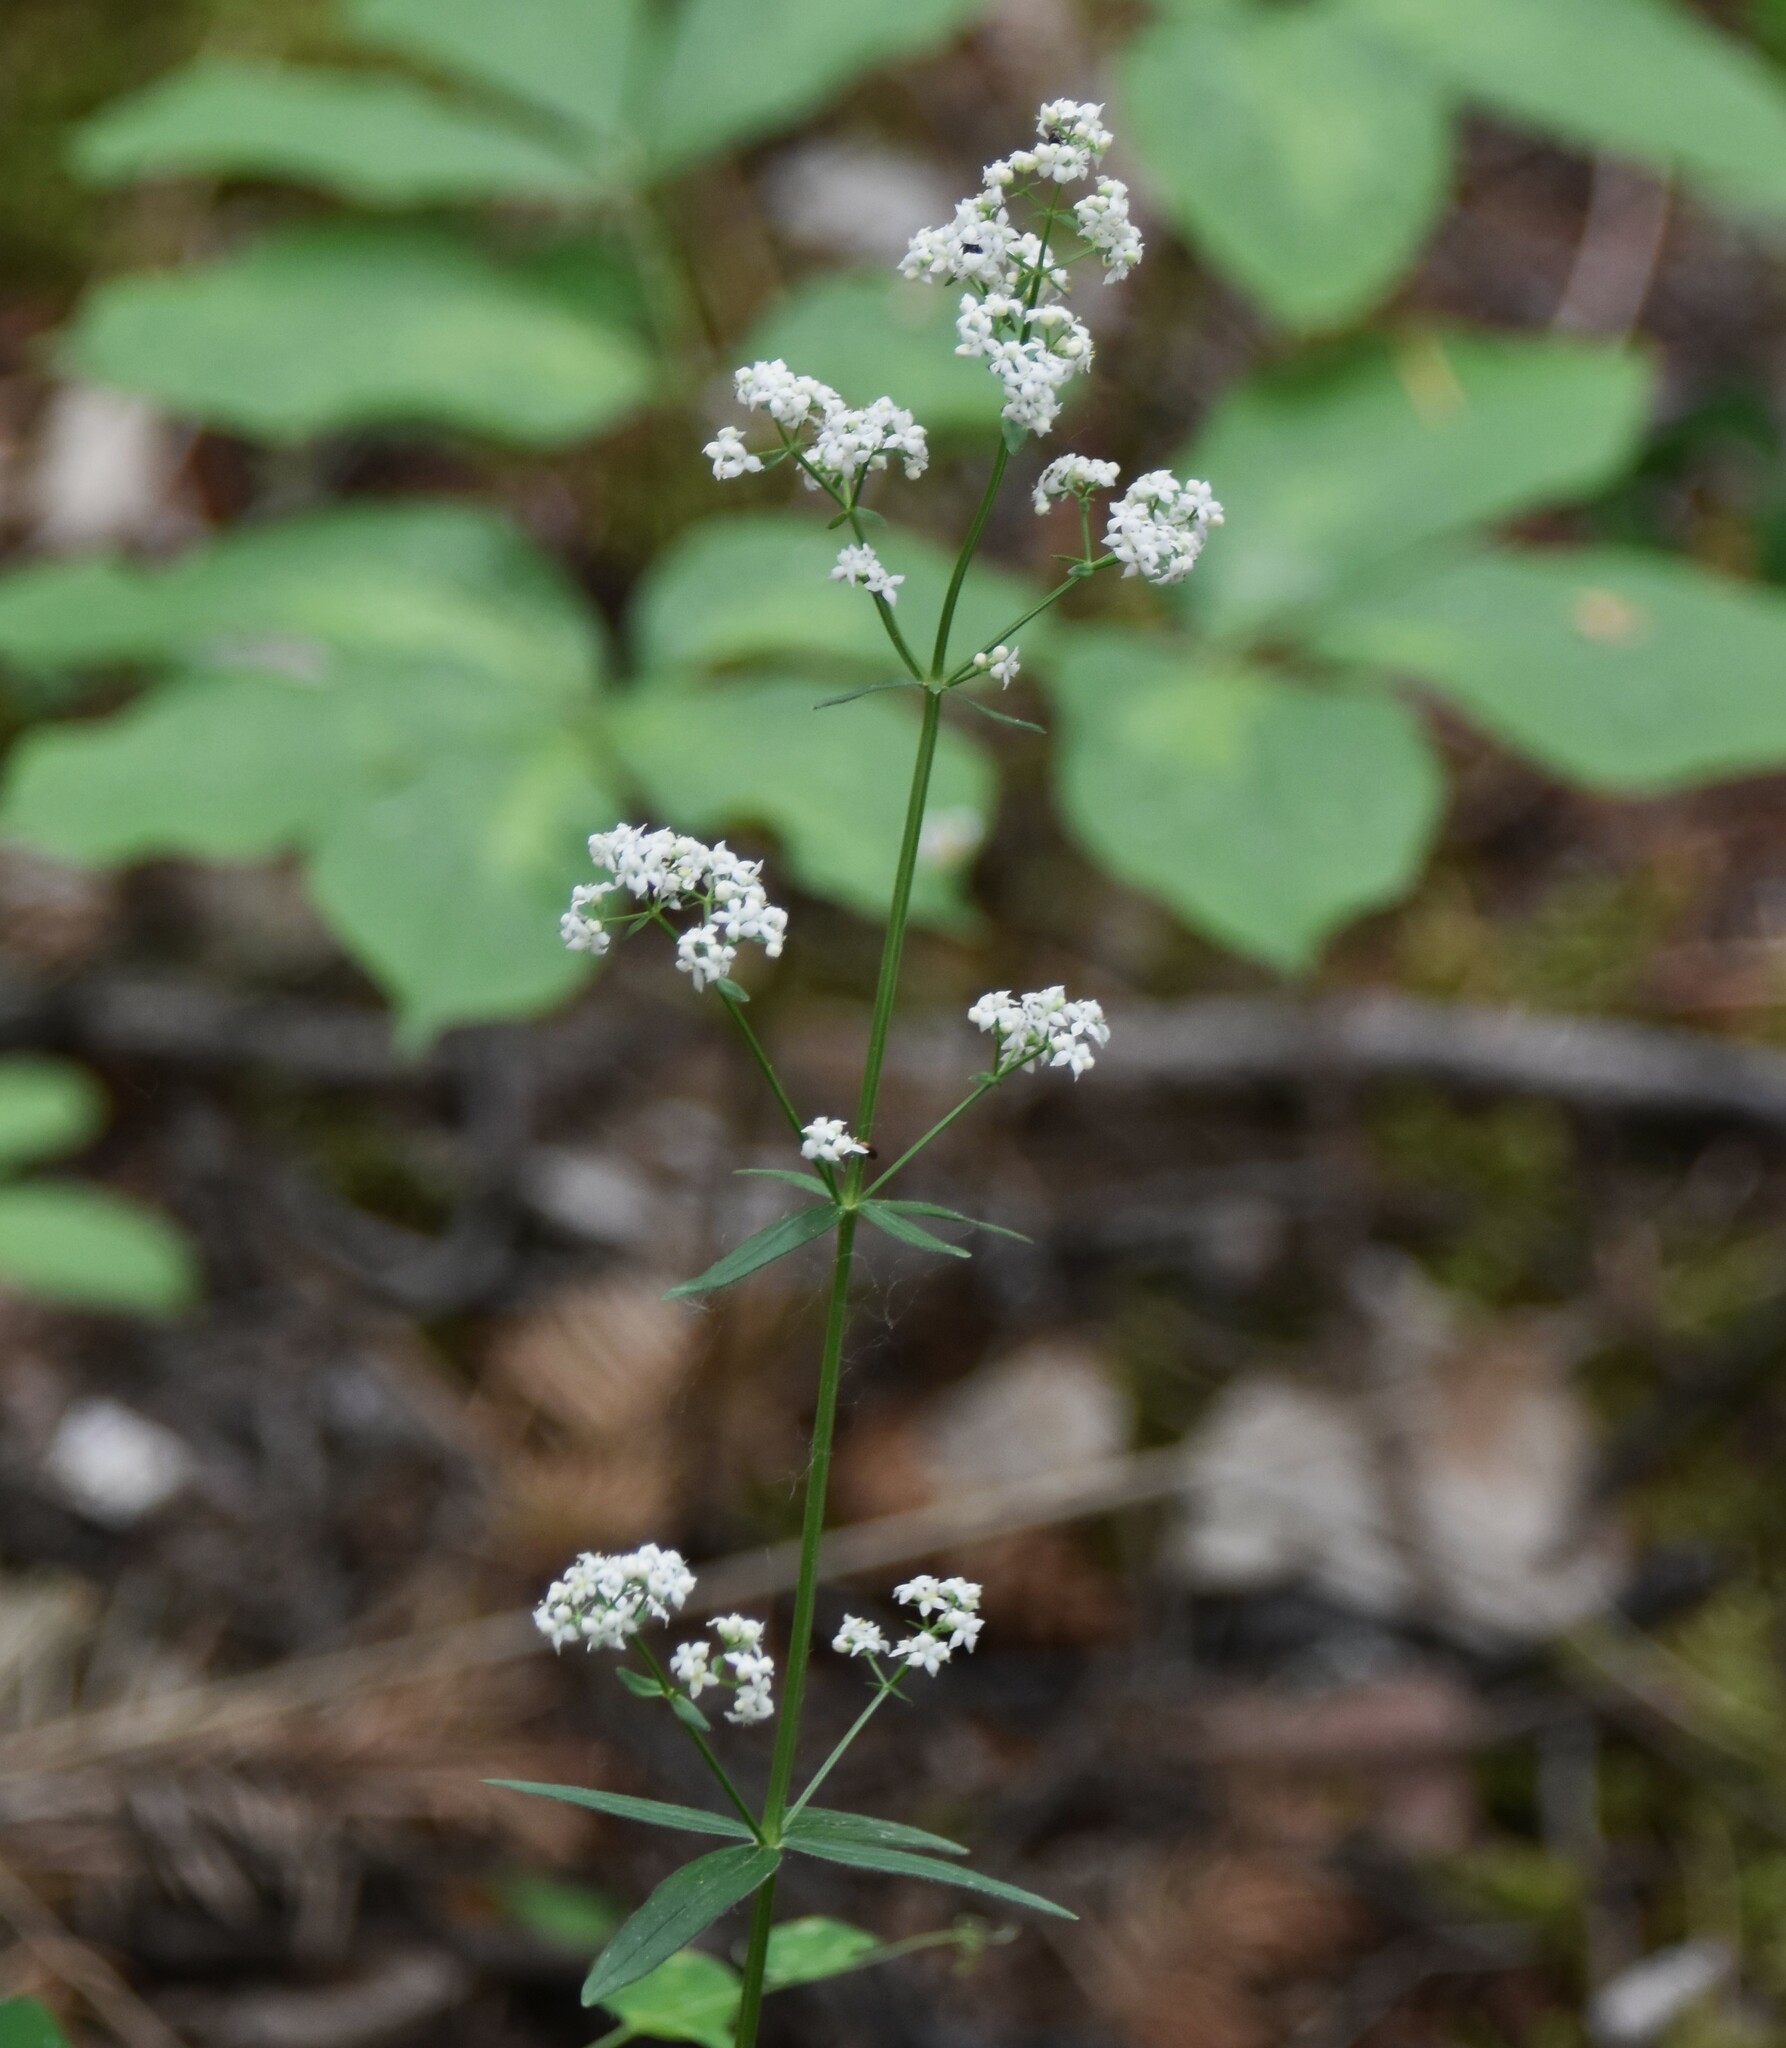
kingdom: Plantae
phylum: Tracheophyta
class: Magnoliopsida
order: Gentianales
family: Rubiaceae
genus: Galium
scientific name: Galium boreale
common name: Northern bedstraw
